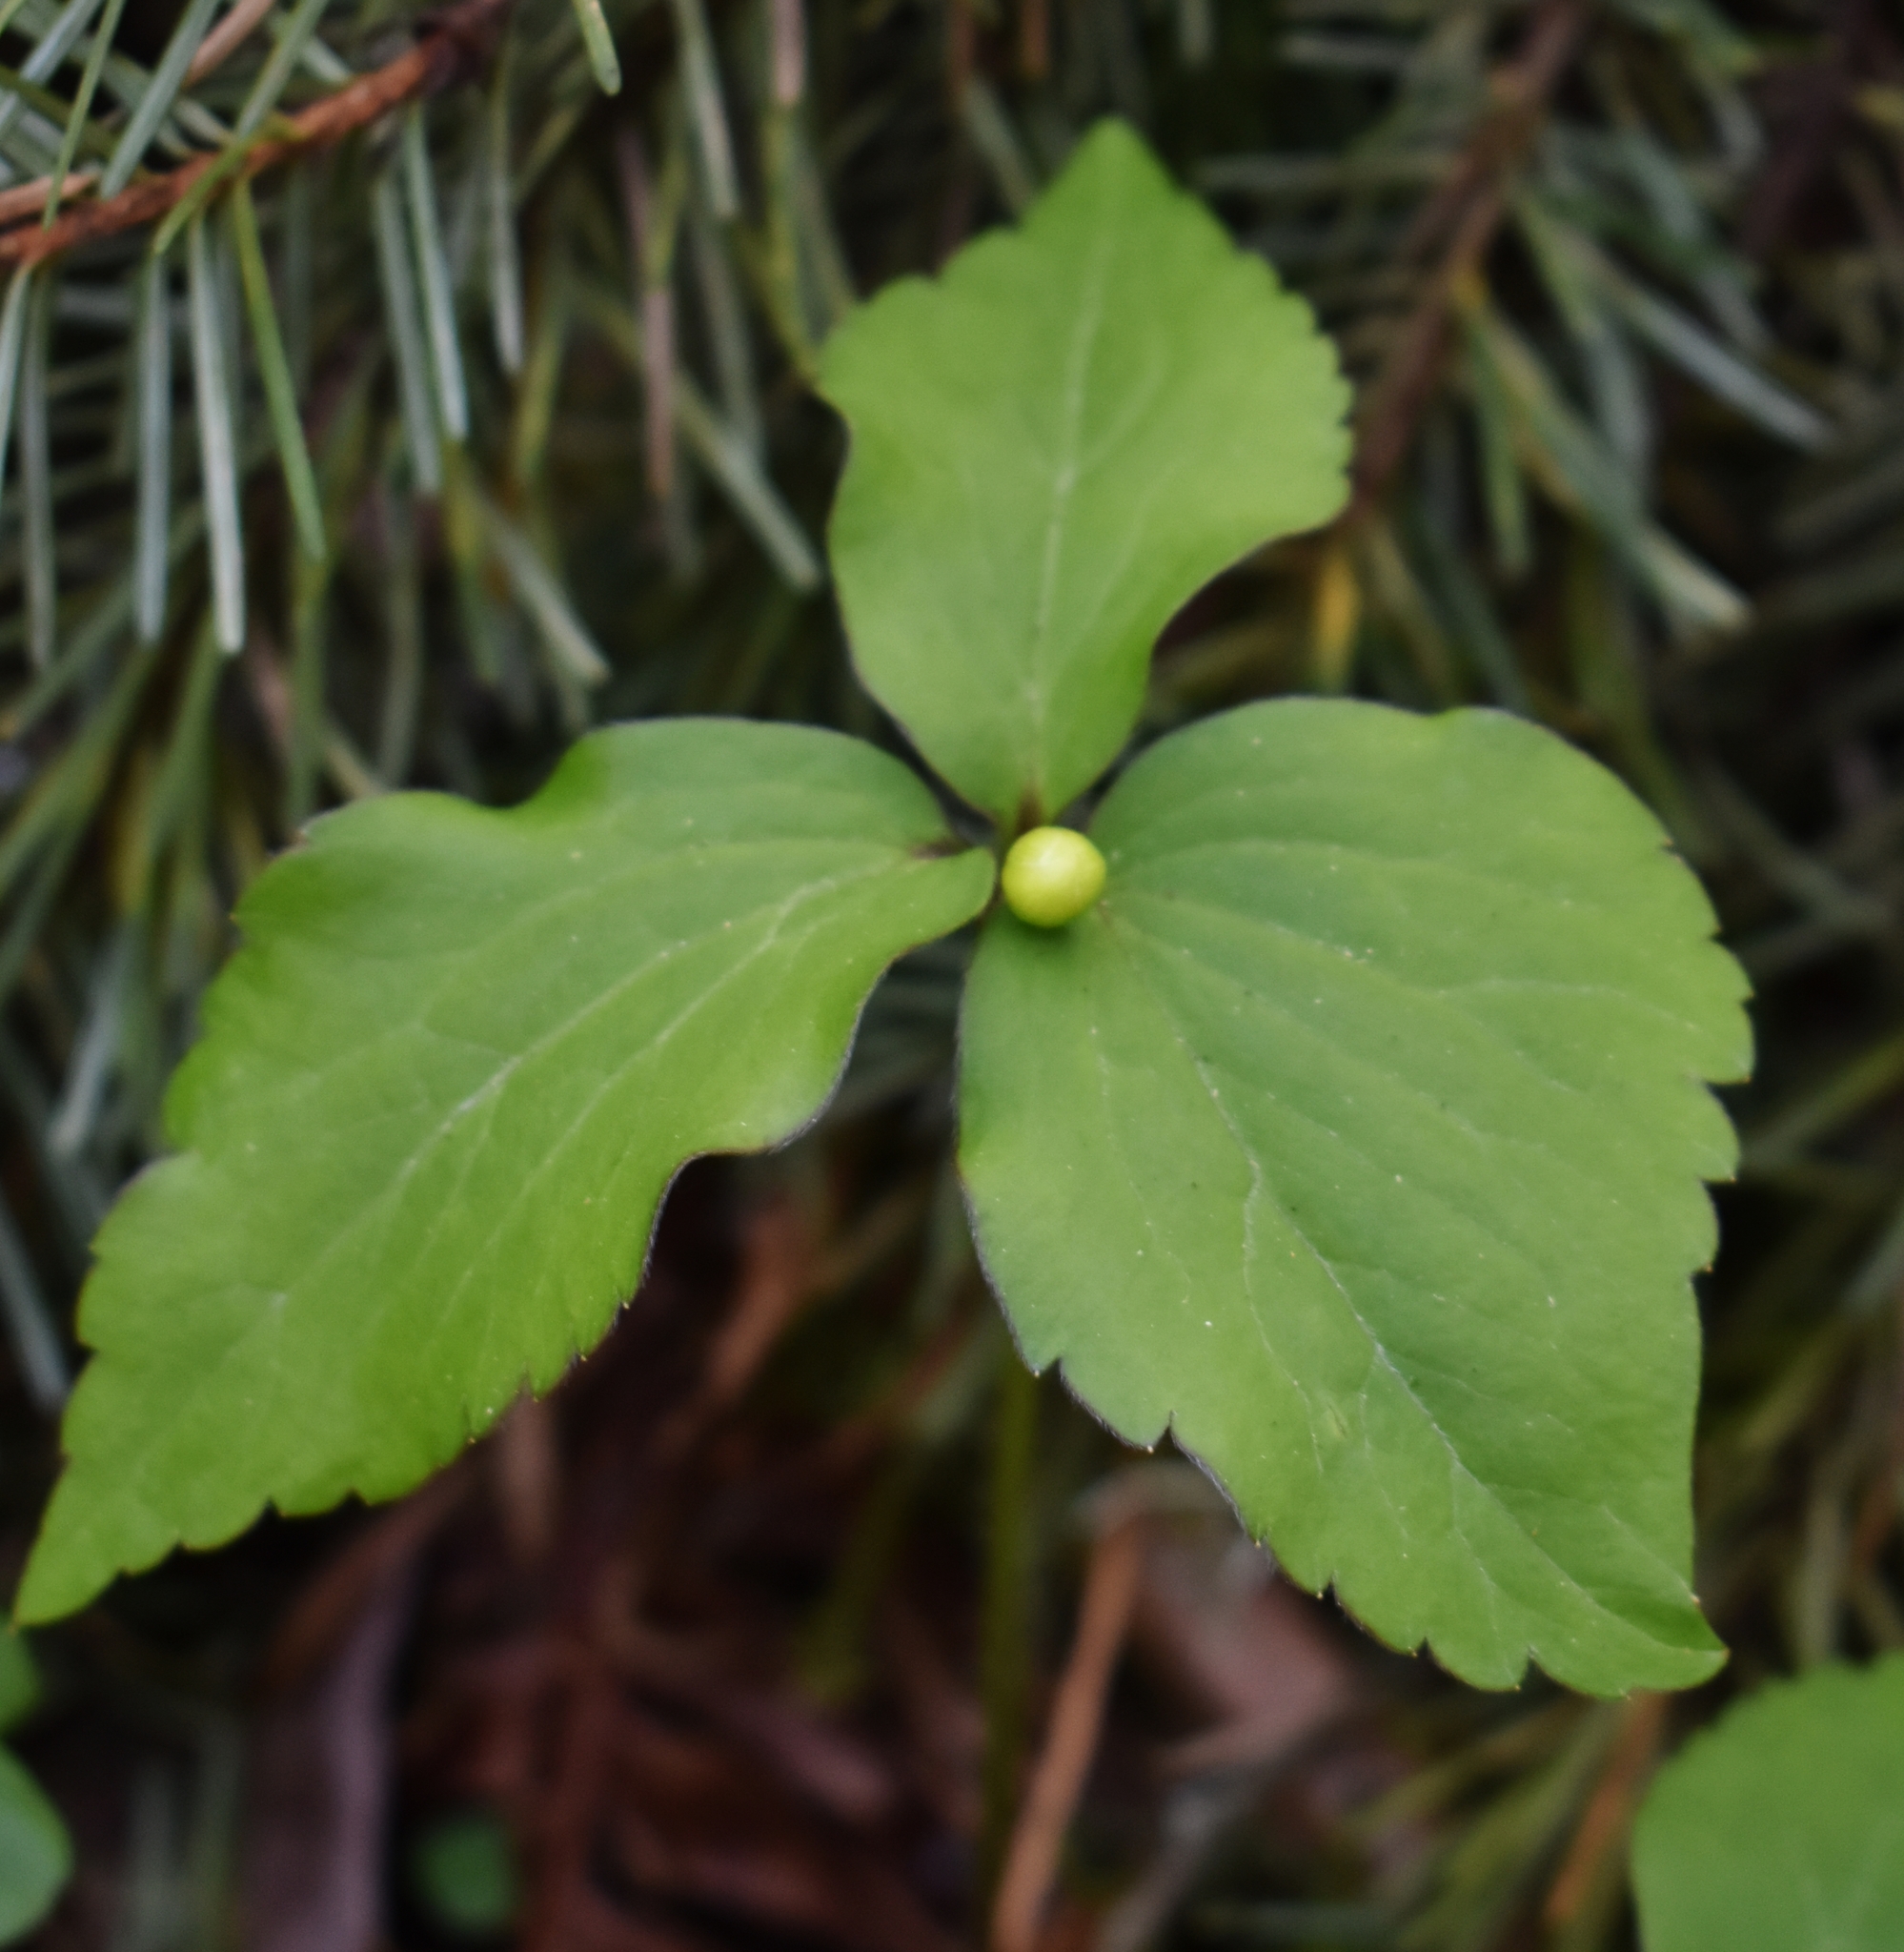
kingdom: Plantae
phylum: Tracheophyta
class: Magnoliopsida
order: Ranunculales
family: Ranunculaceae
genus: Anemonastrum
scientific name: Anemonastrum deltoideum
